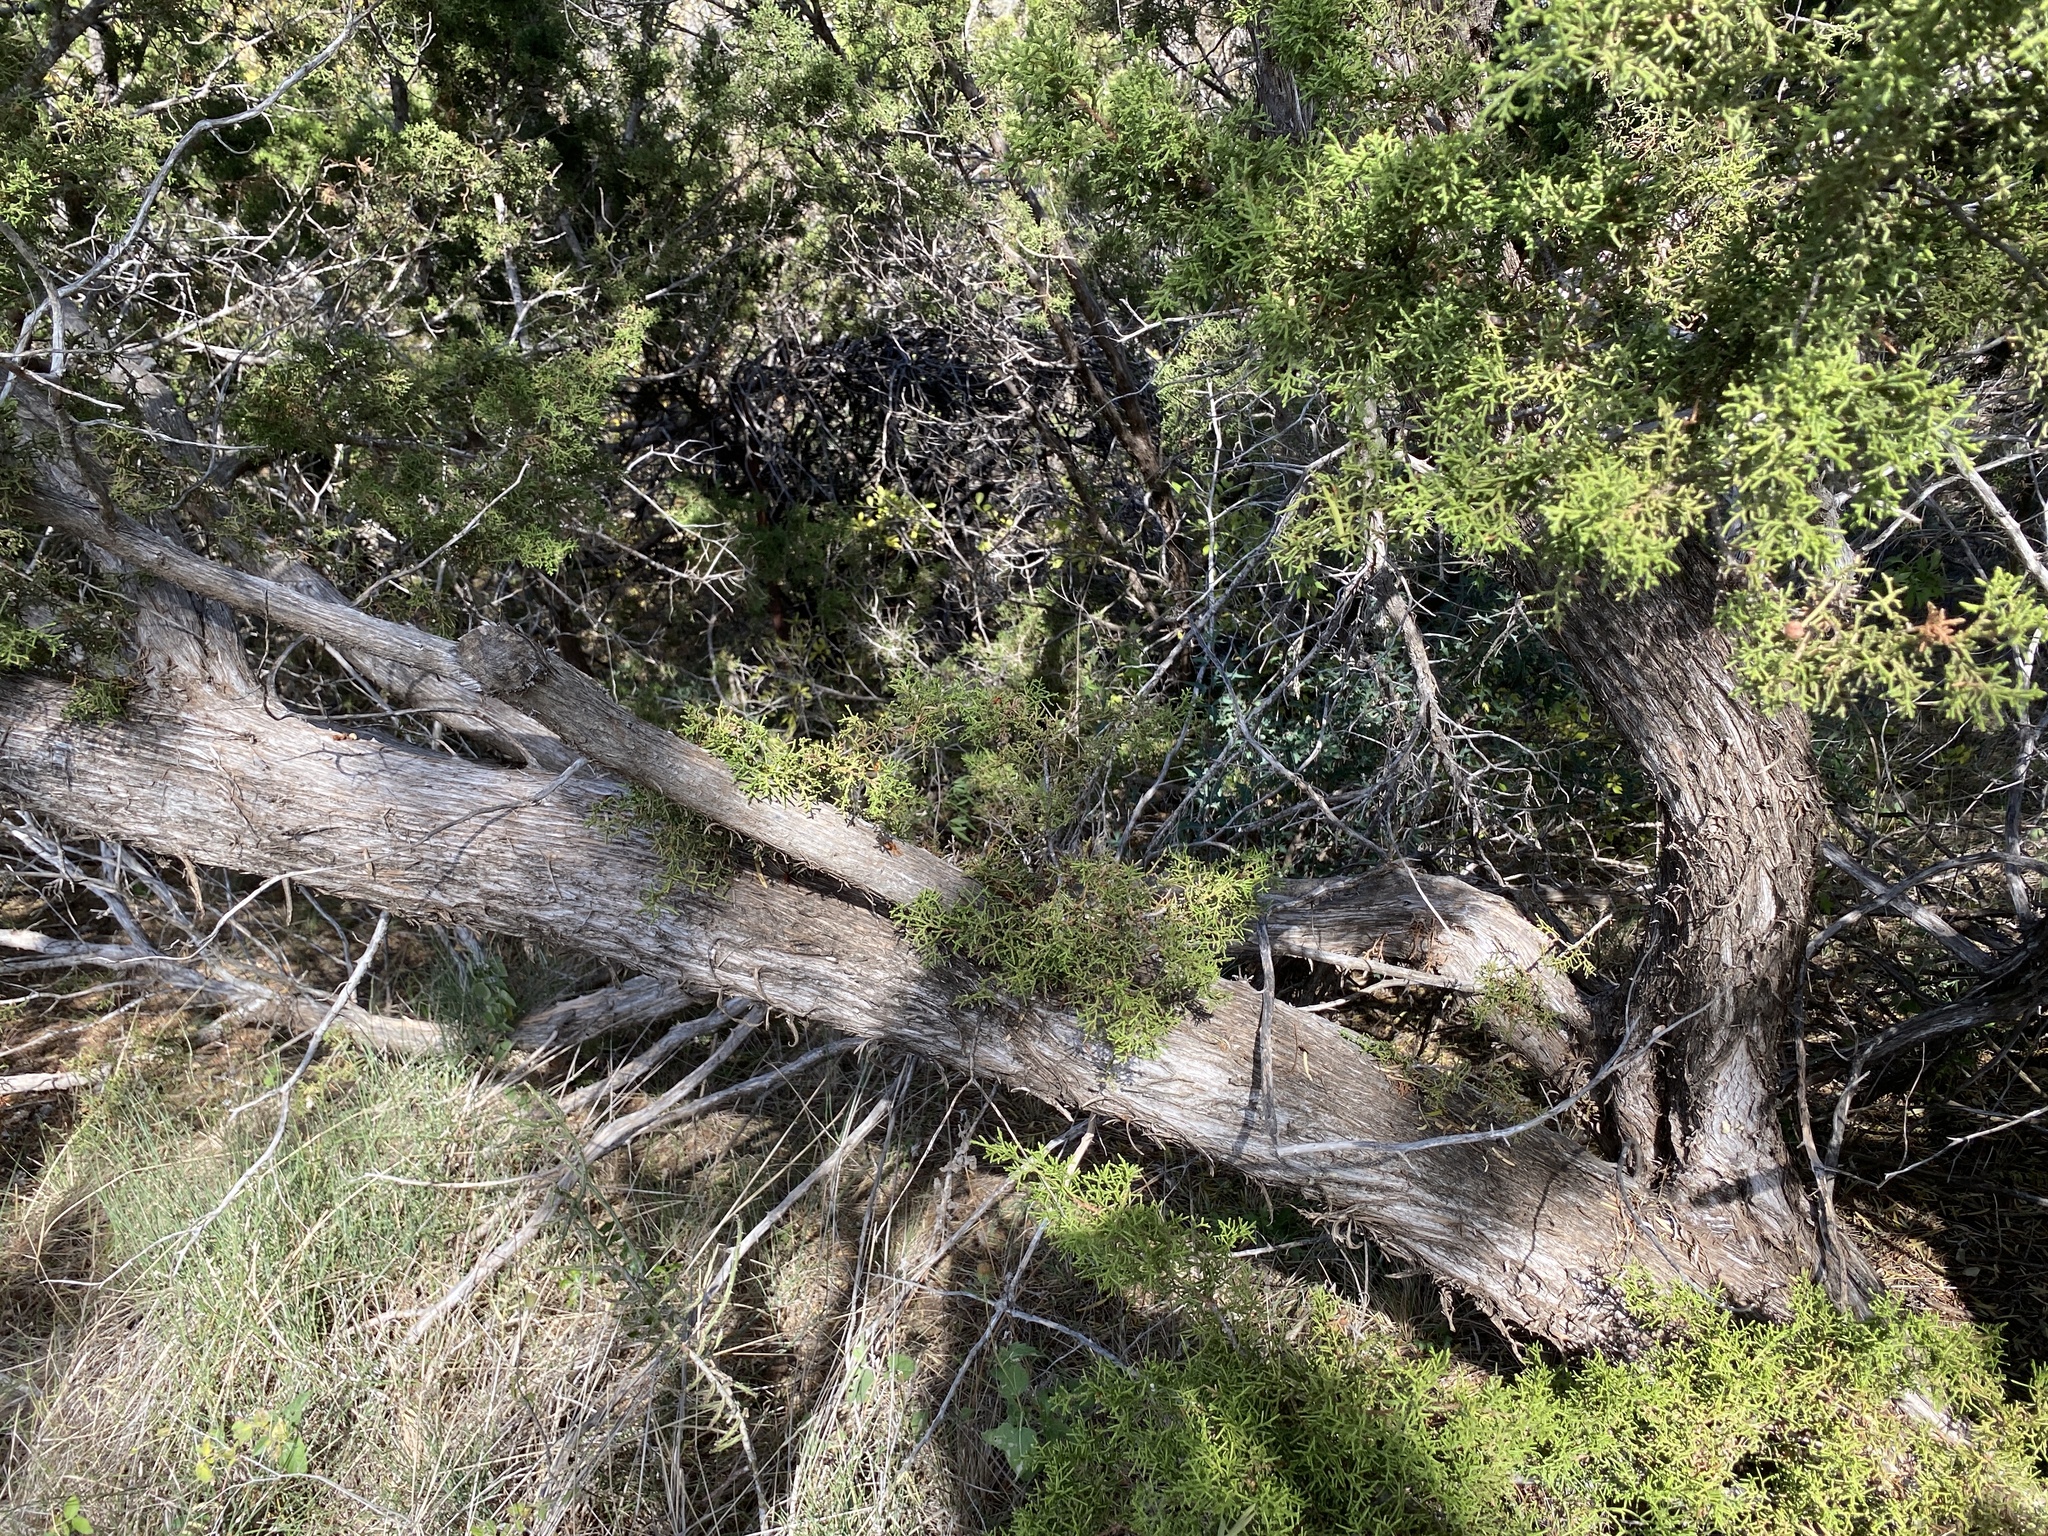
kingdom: Plantae
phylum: Tracheophyta
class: Pinopsida
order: Pinales
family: Cupressaceae
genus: Juniperus
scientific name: Juniperus pinchotii
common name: Pinchot juniper
